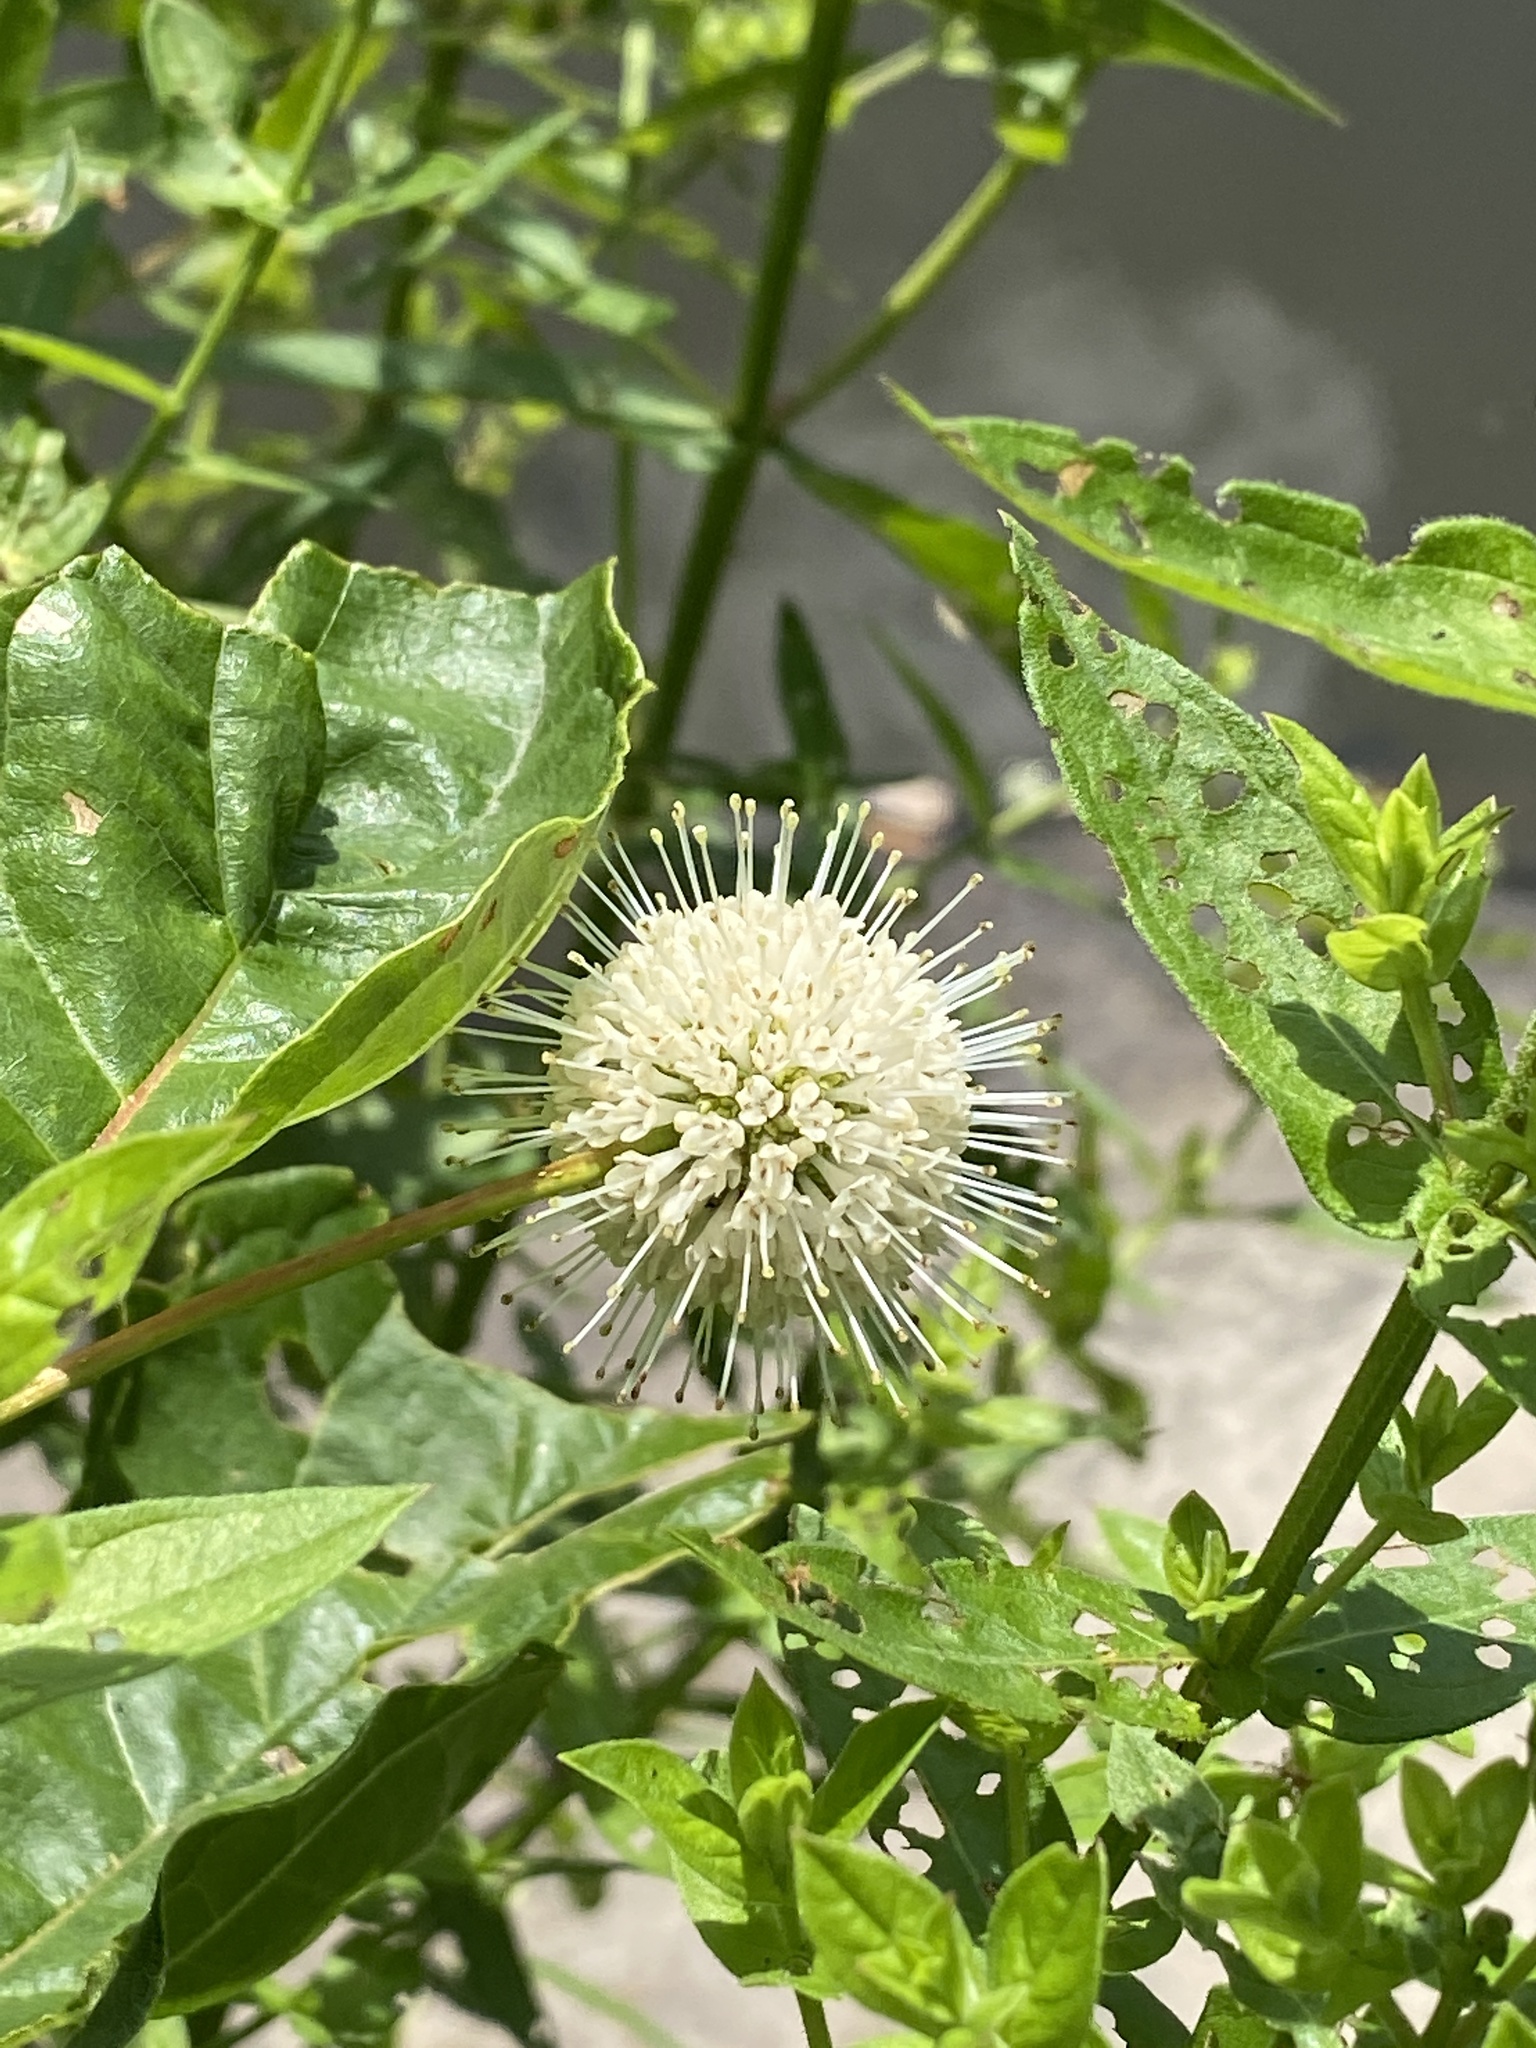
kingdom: Plantae
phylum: Tracheophyta
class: Magnoliopsida
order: Gentianales
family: Rubiaceae
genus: Cephalanthus
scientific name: Cephalanthus occidentalis
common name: Button-willow
